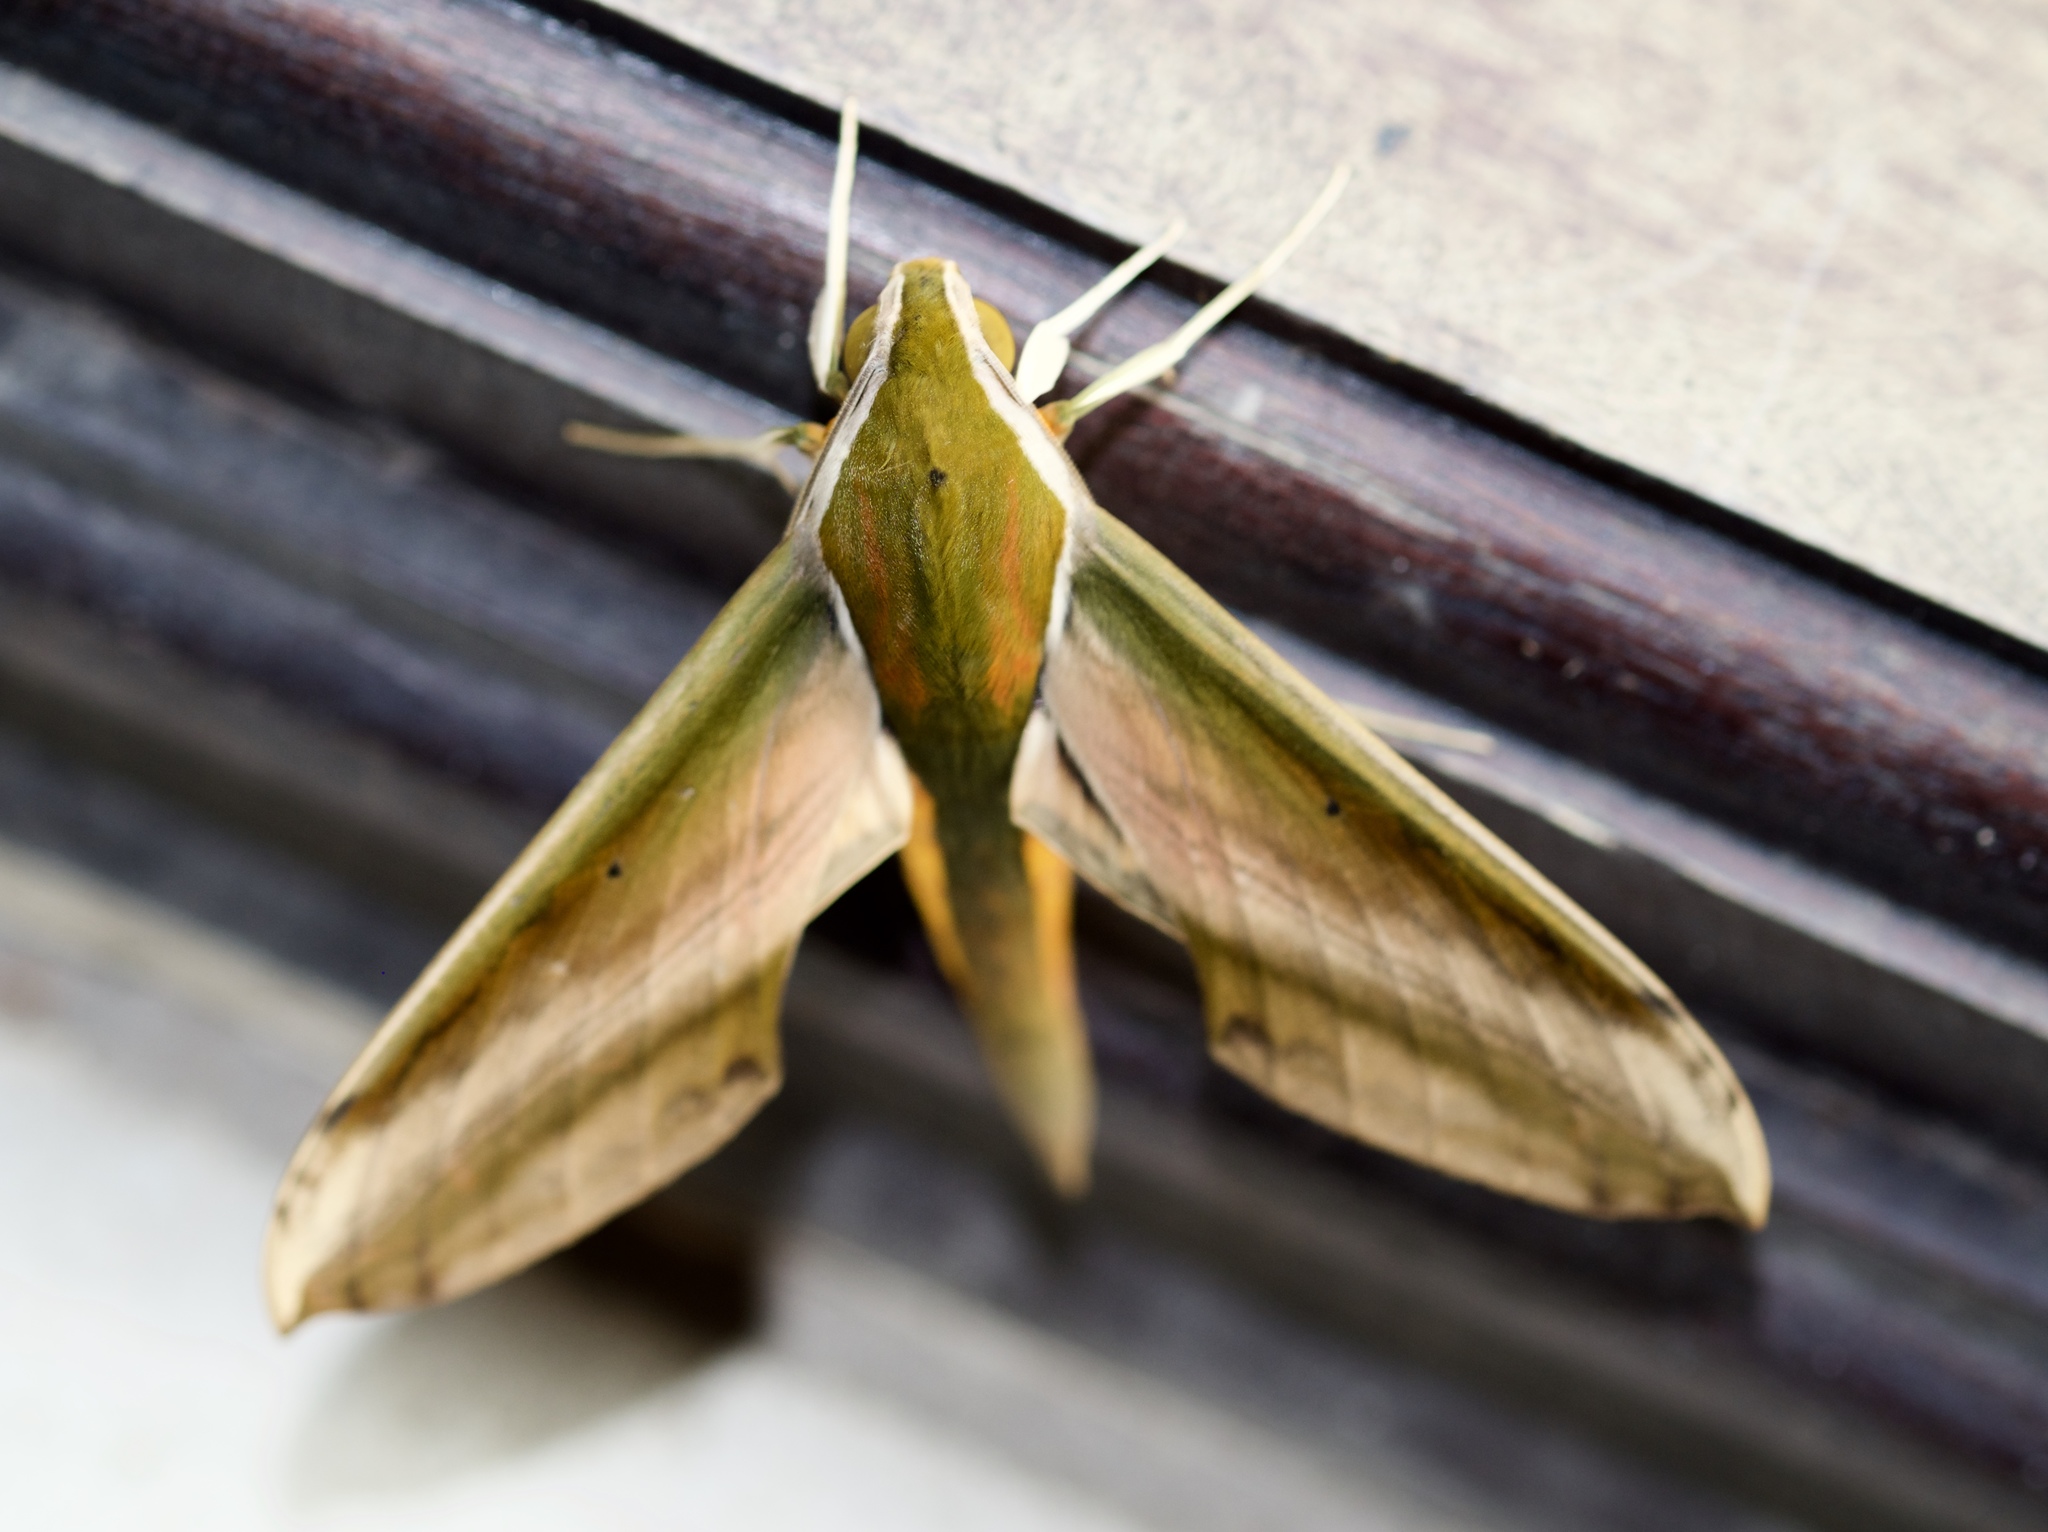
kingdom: Animalia
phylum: Arthropoda
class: Insecta
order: Lepidoptera
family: Sphingidae
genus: Theretra
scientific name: Theretra nessus
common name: Yam hawk moth
